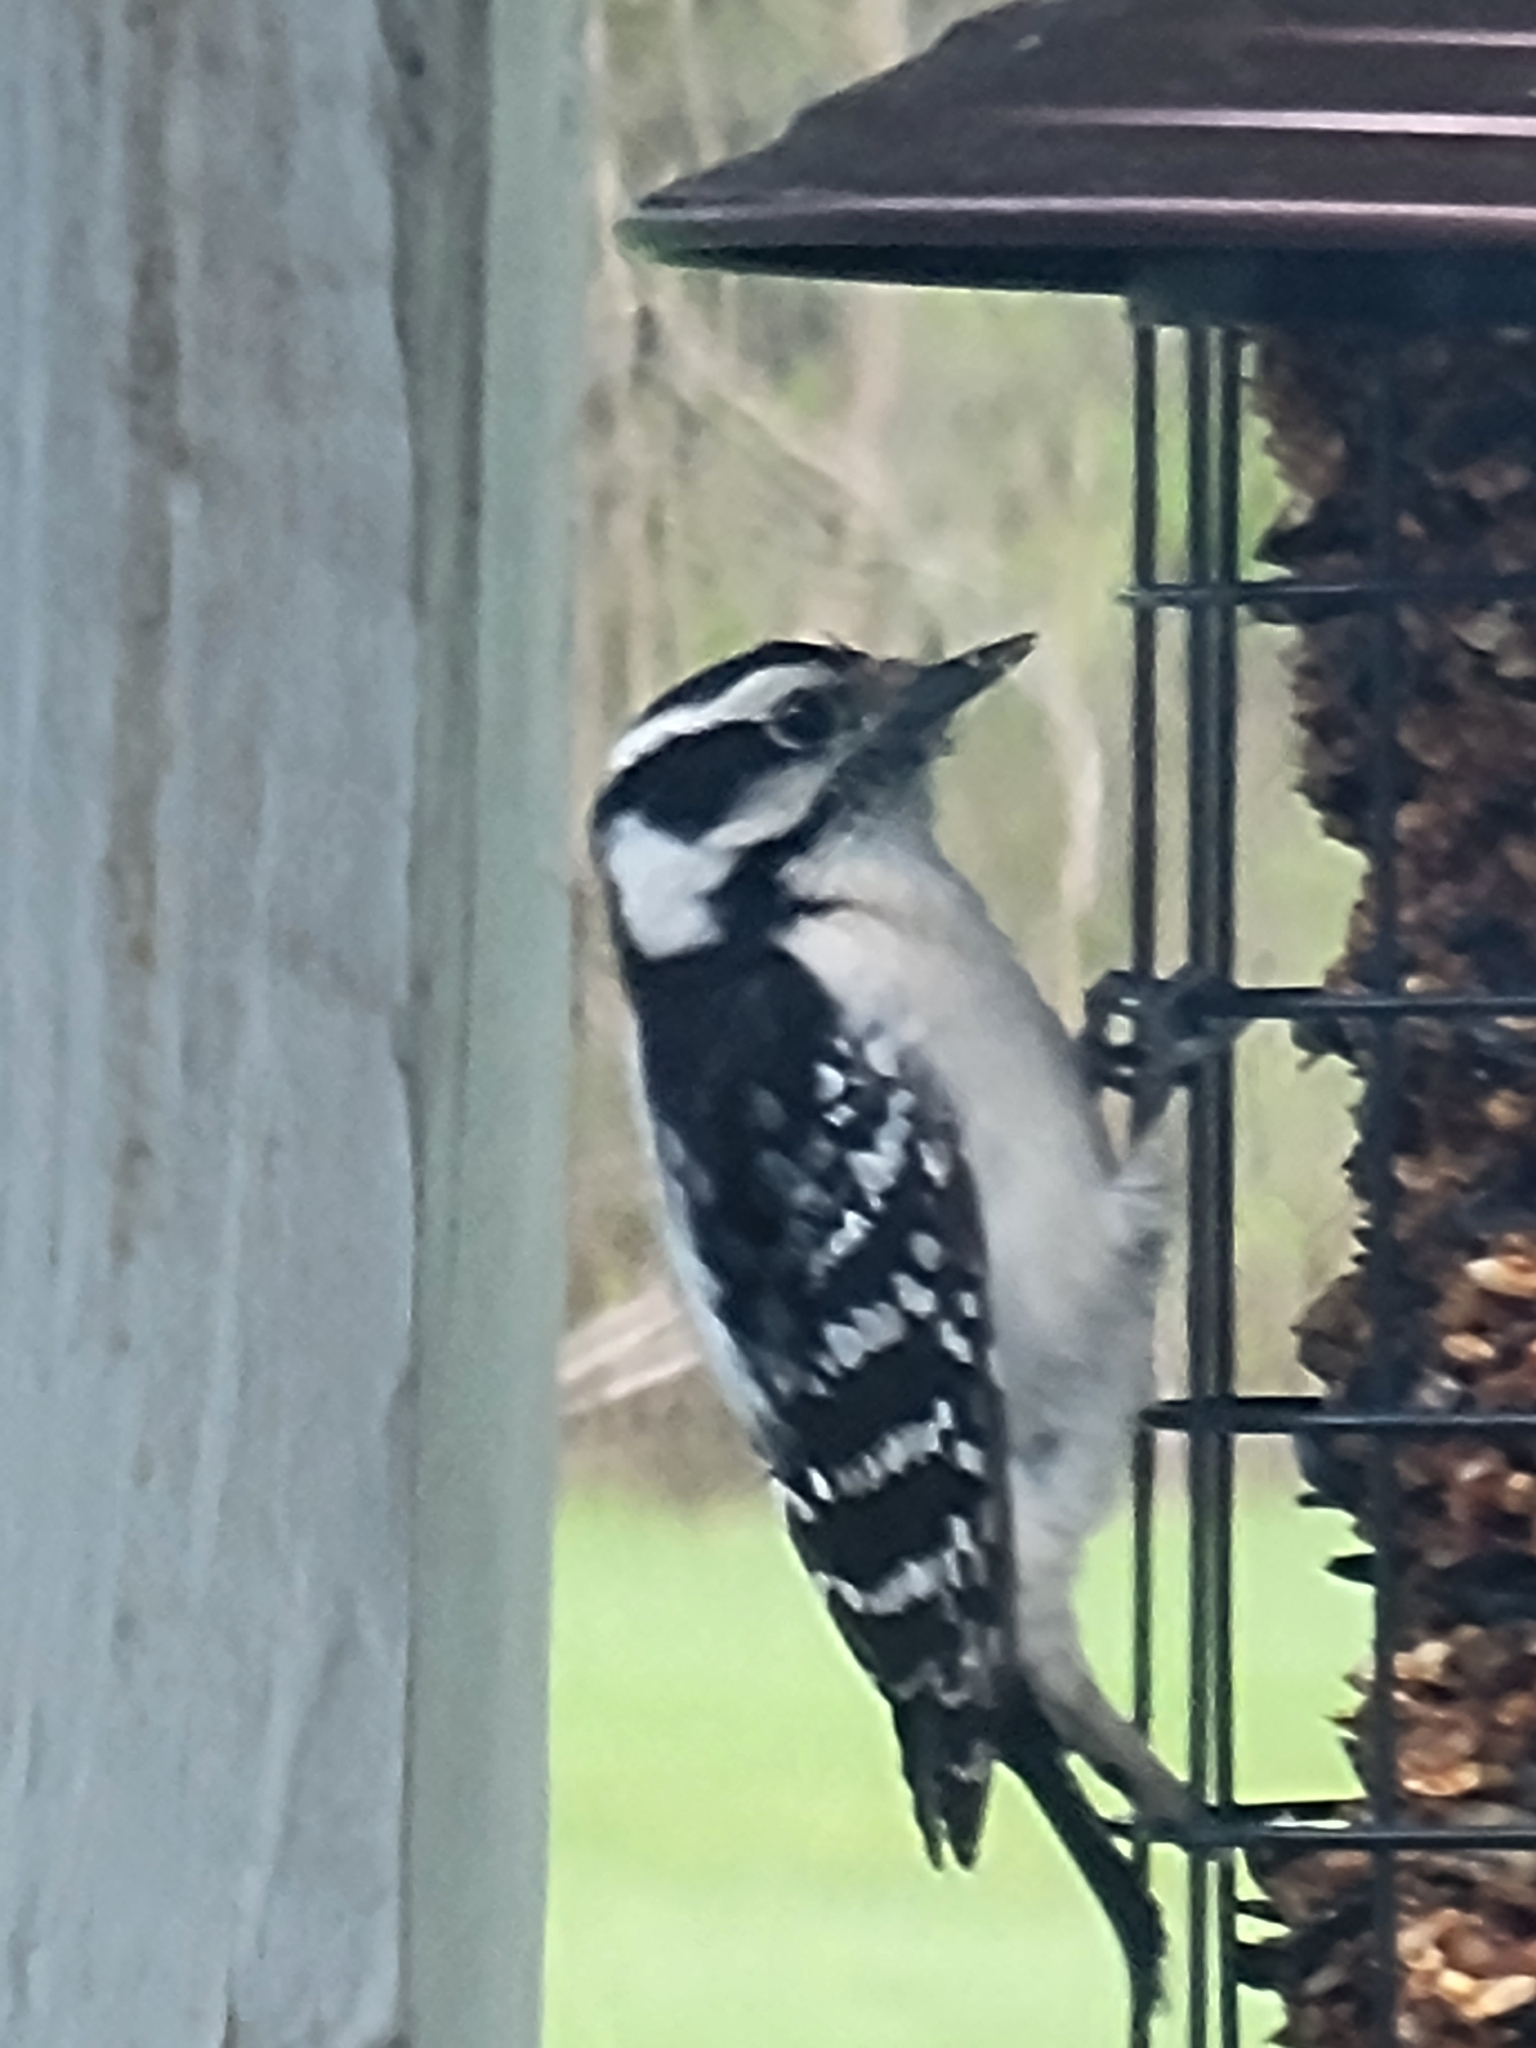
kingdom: Animalia
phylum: Chordata
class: Aves
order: Piciformes
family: Picidae
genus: Dryobates
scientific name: Dryobates pubescens
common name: Downy woodpecker
